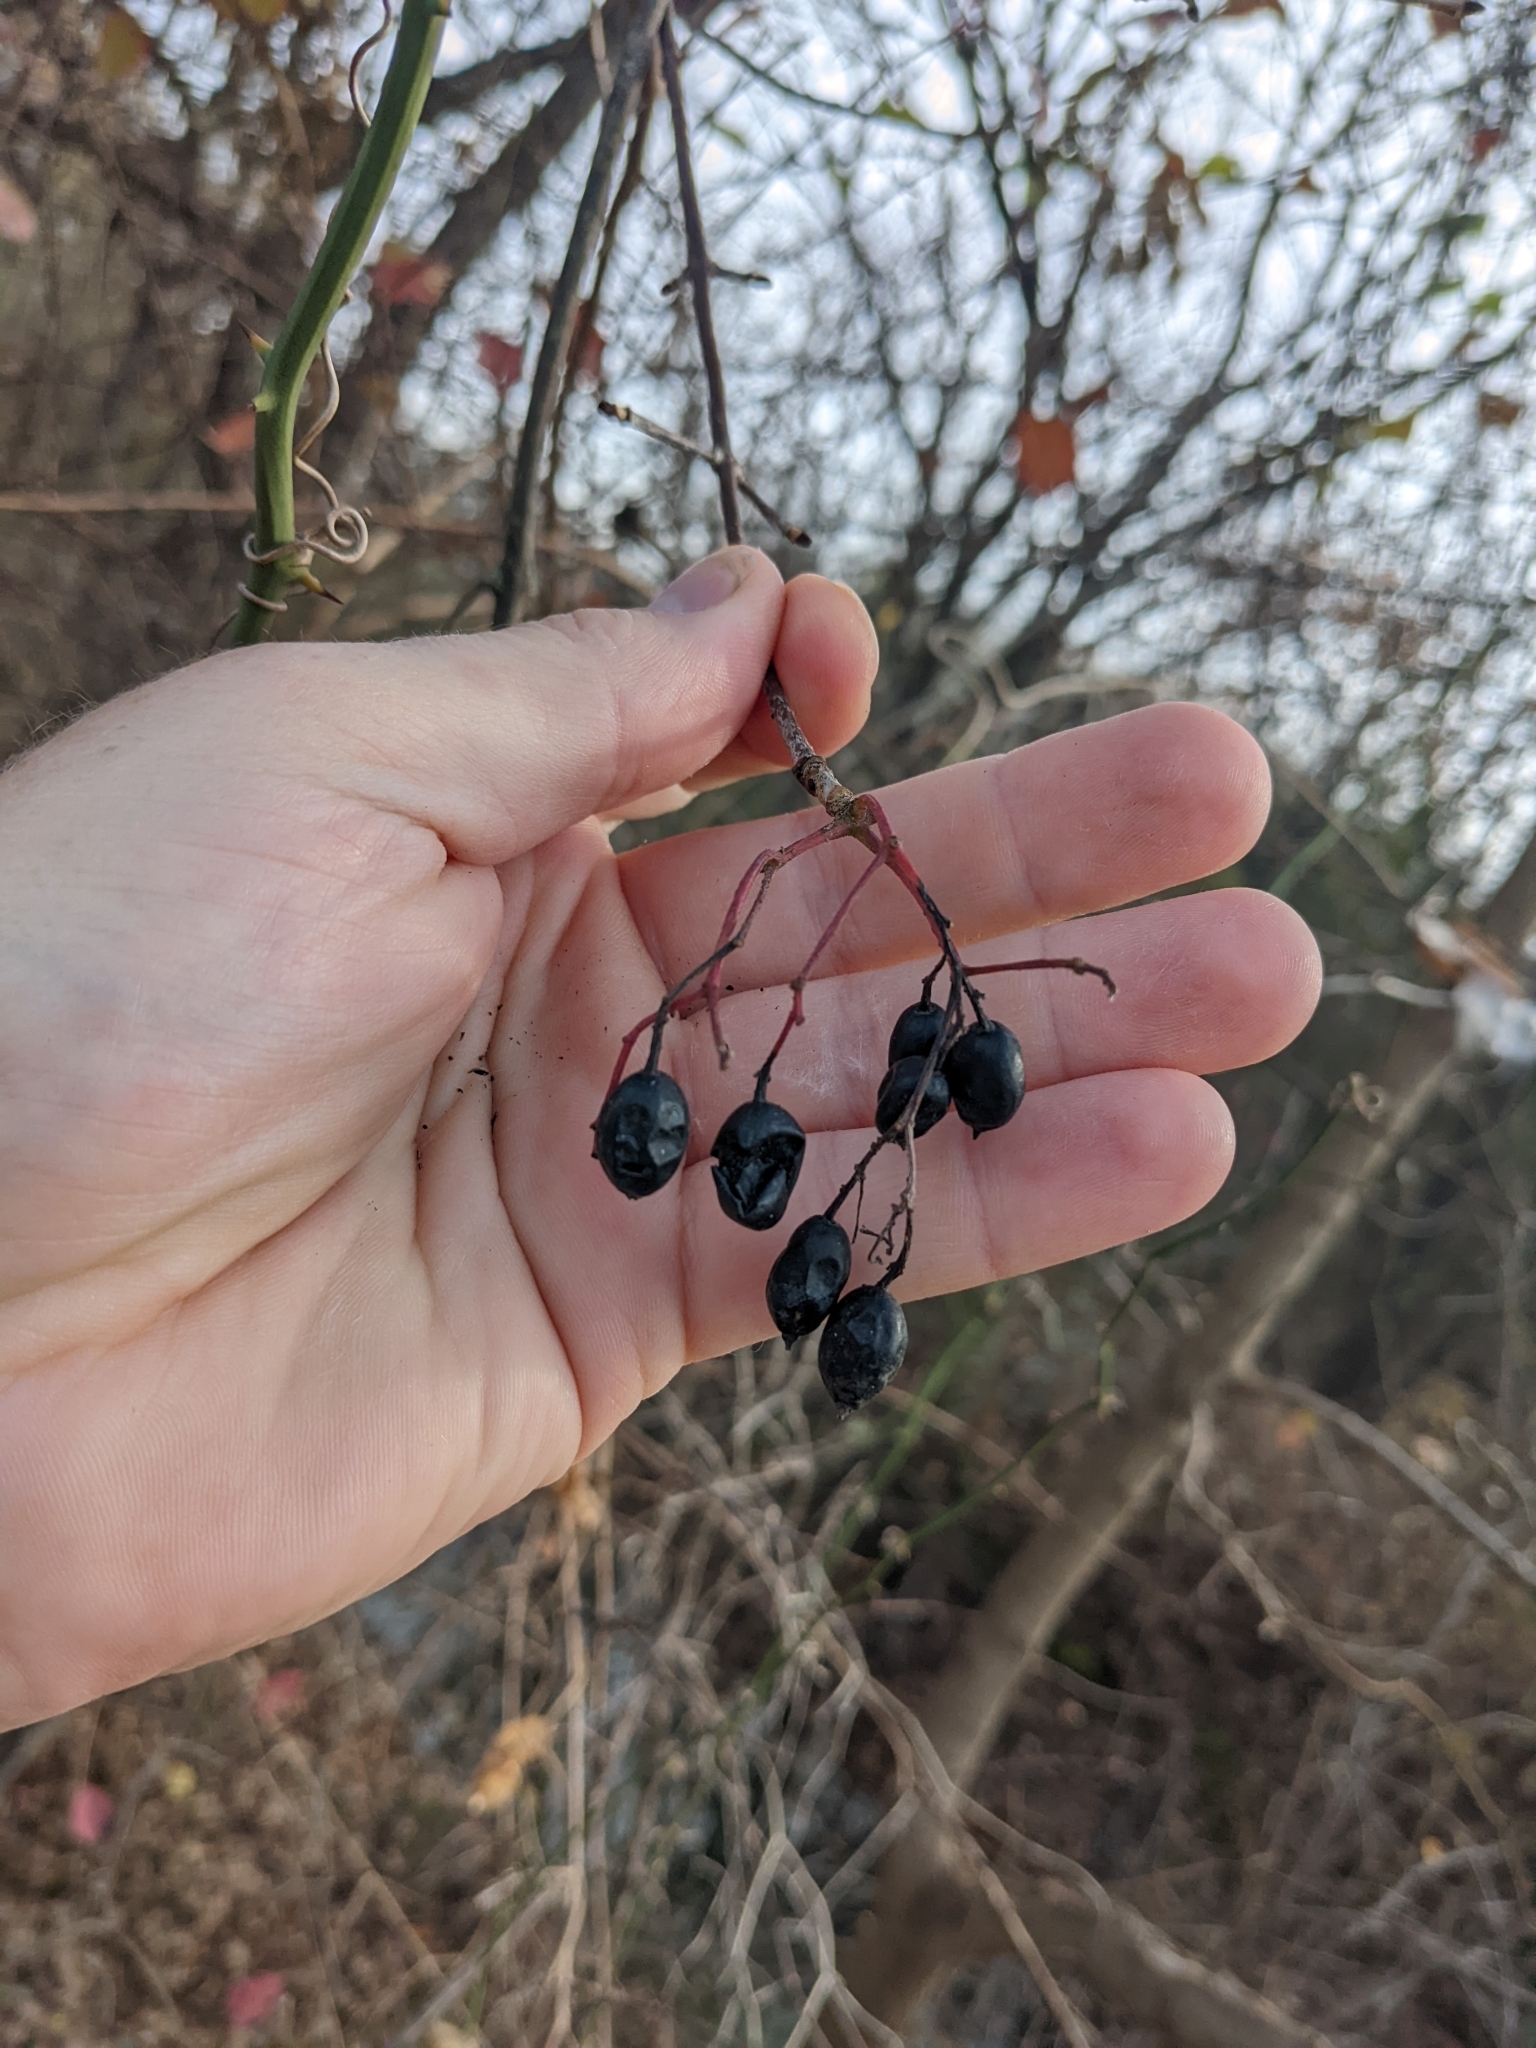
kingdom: Plantae
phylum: Tracheophyta
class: Magnoliopsida
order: Dipsacales
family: Viburnaceae
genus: Viburnum
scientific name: Viburnum rufidulum
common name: Blue haw
